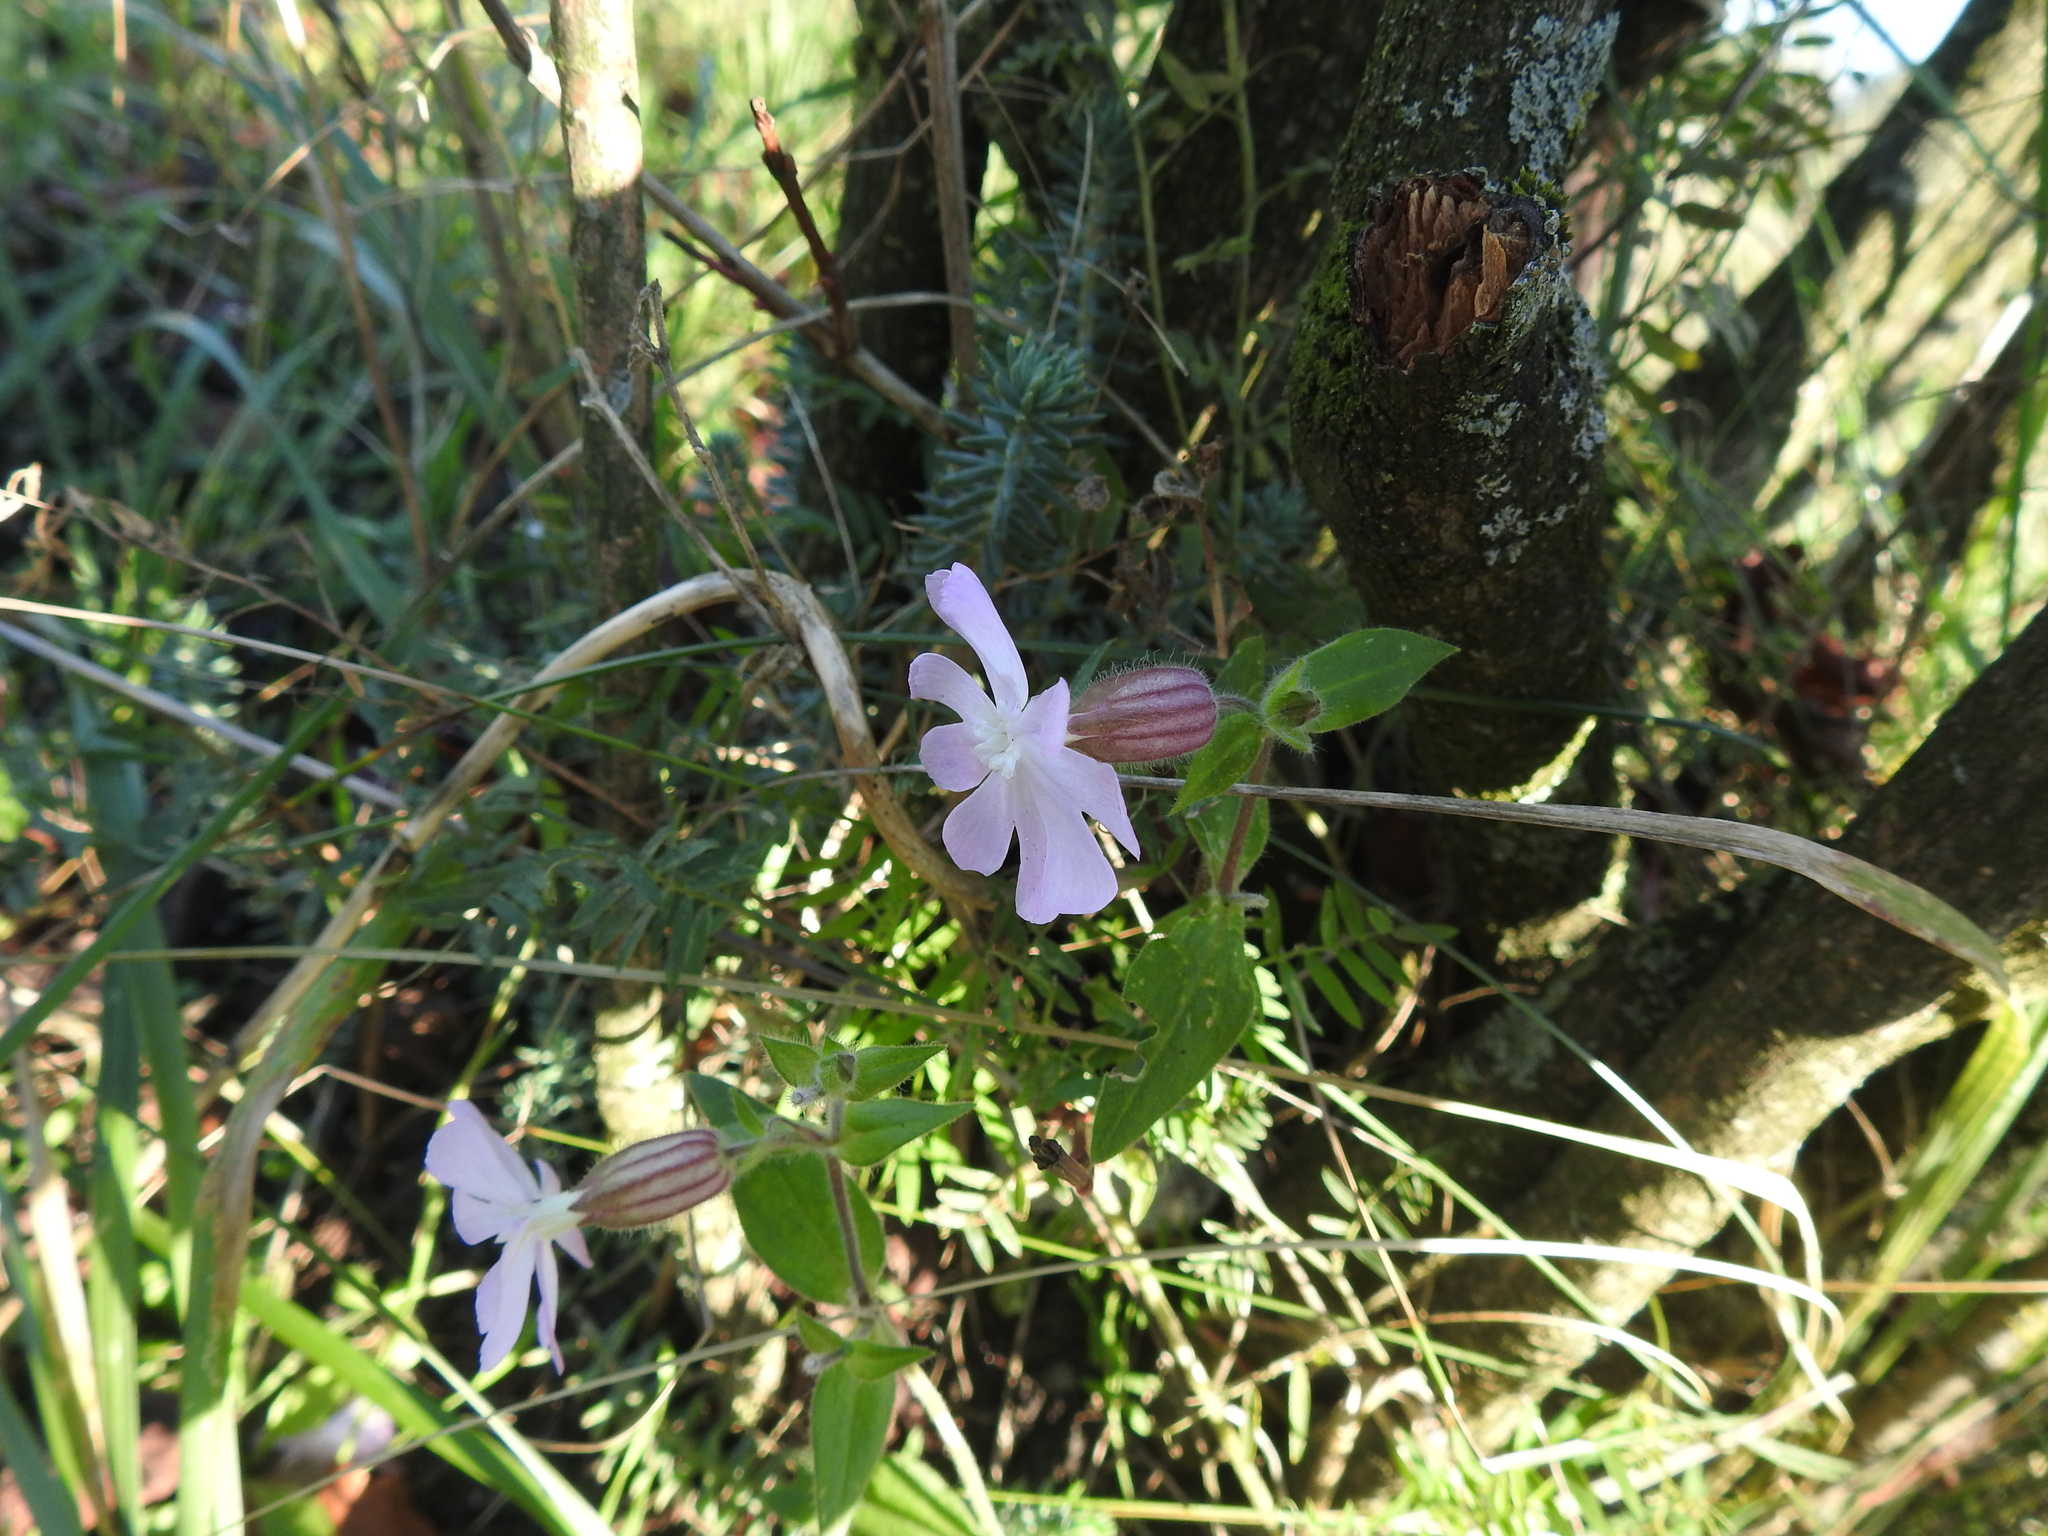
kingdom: Plantae
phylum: Tracheophyta
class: Magnoliopsida
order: Caryophyllales
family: Caryophyllaceae
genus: Silene
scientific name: Silene hampeana
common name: Catchfly
